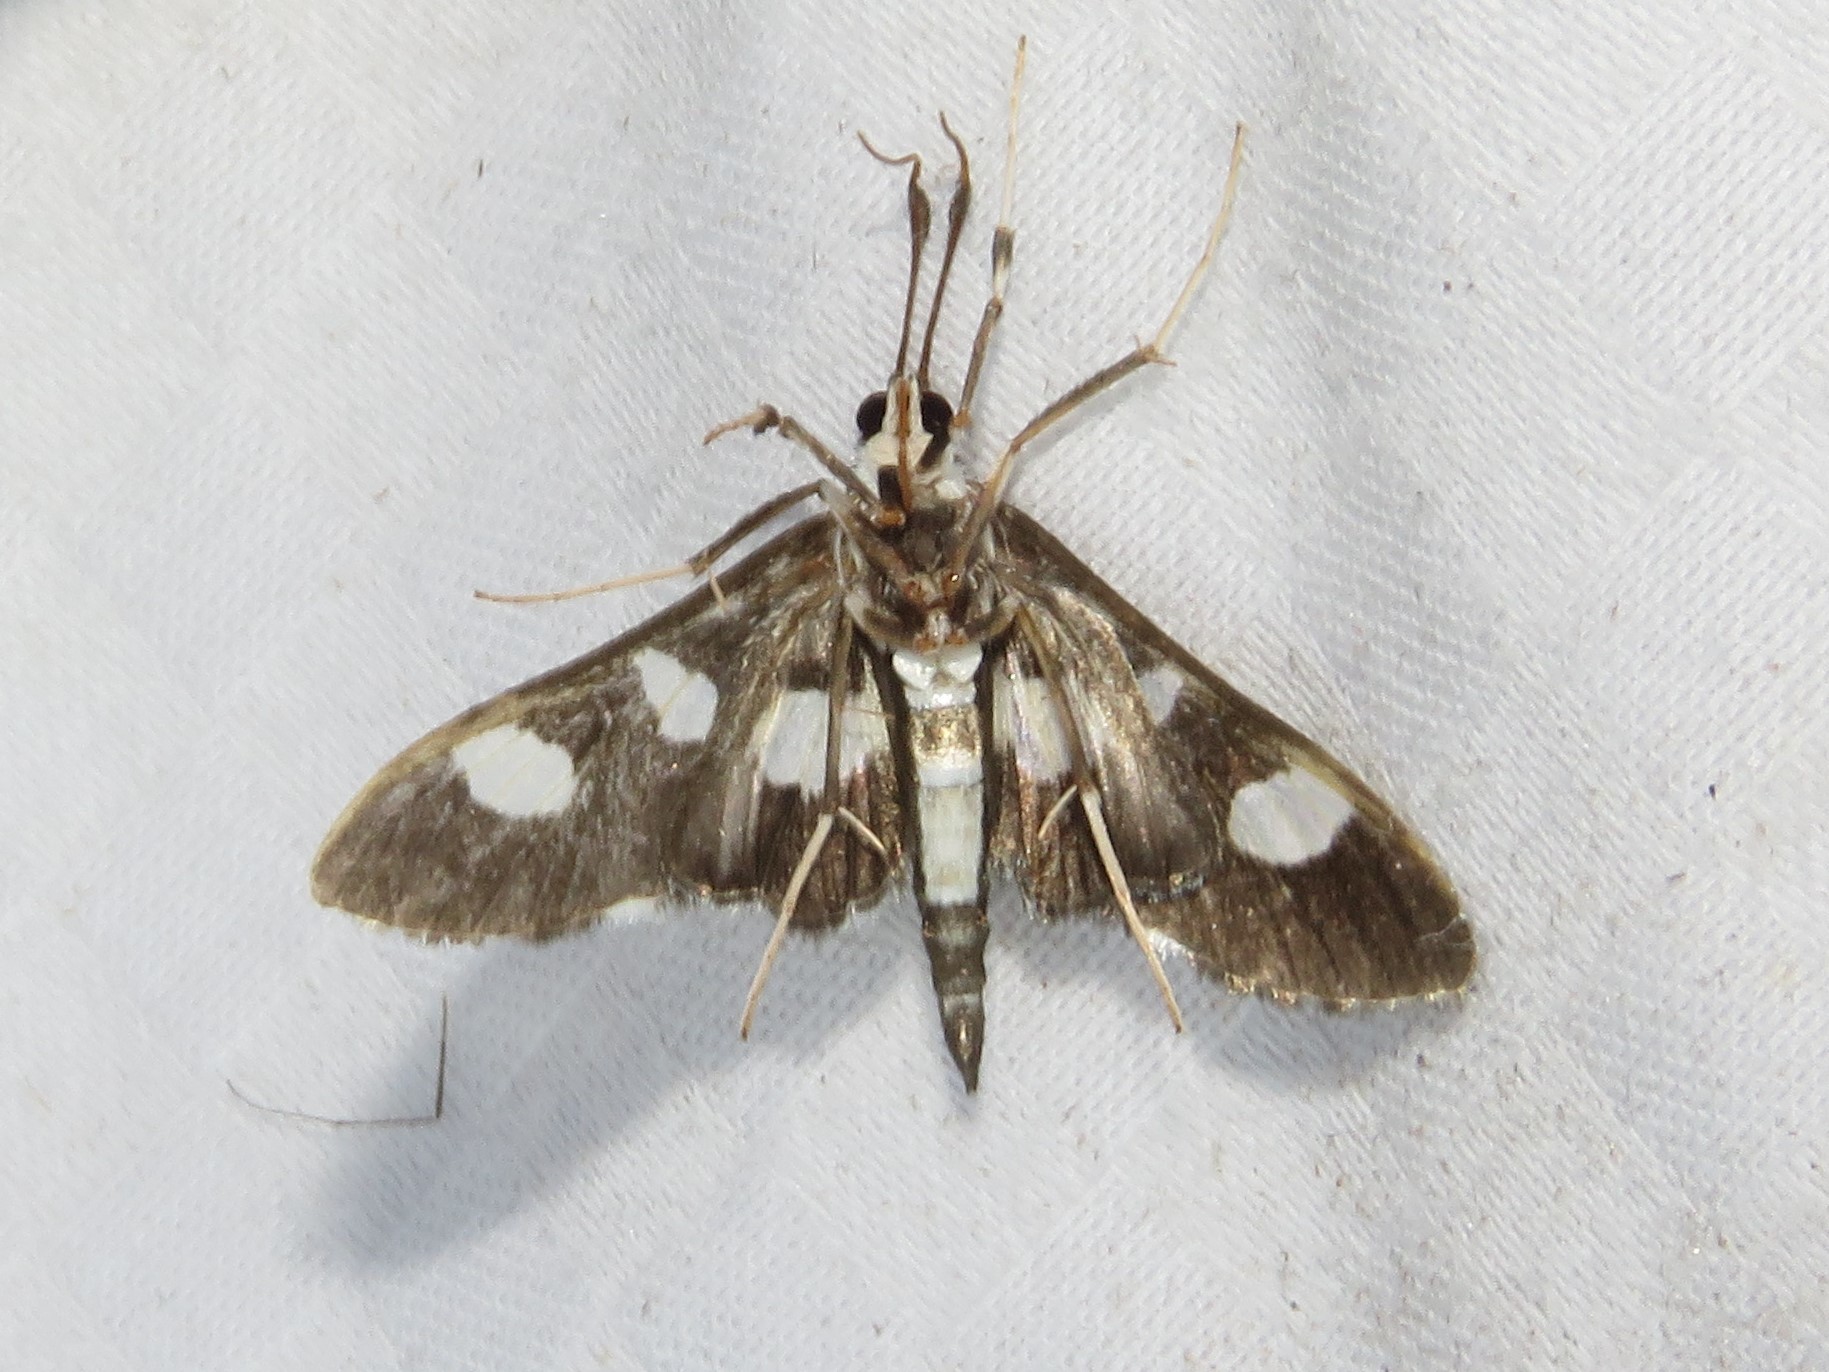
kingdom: Animalia
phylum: Arthropoda
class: Insecta
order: Lepidoptera
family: Crambidae
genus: Desmia
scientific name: Desmia funeralis
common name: Grape leaf folder moth
